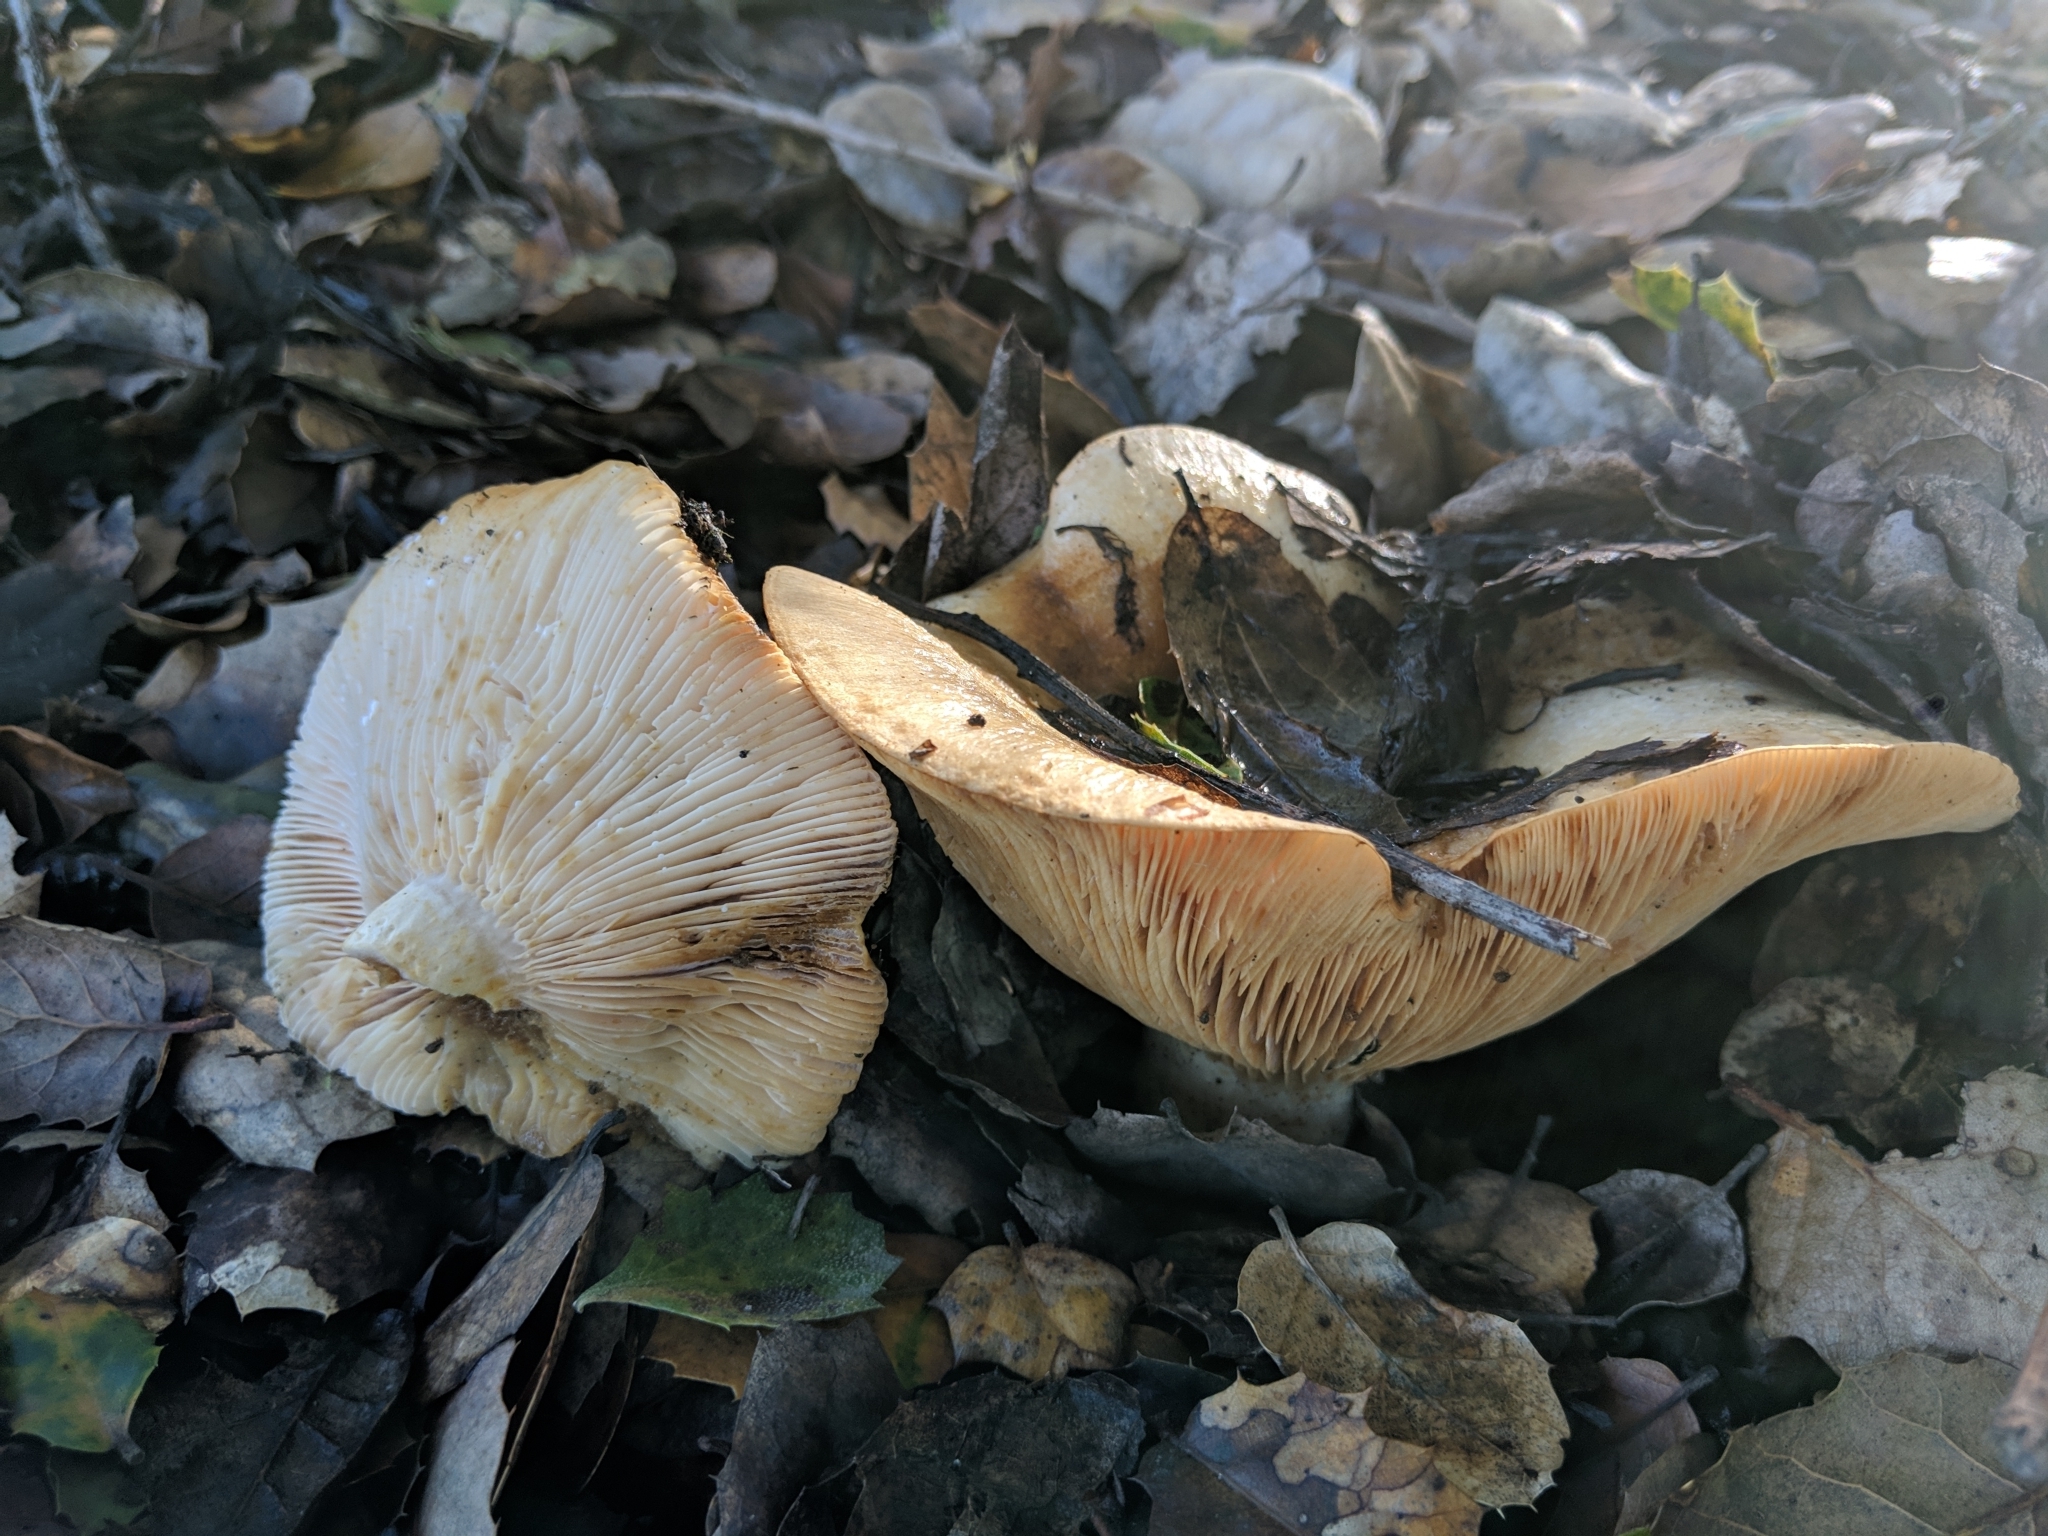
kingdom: Fungi
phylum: Basidiomycota
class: Agaricomycetes
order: Russulales
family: Russulaceae
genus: Lactarius
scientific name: Lactarius alnicola
